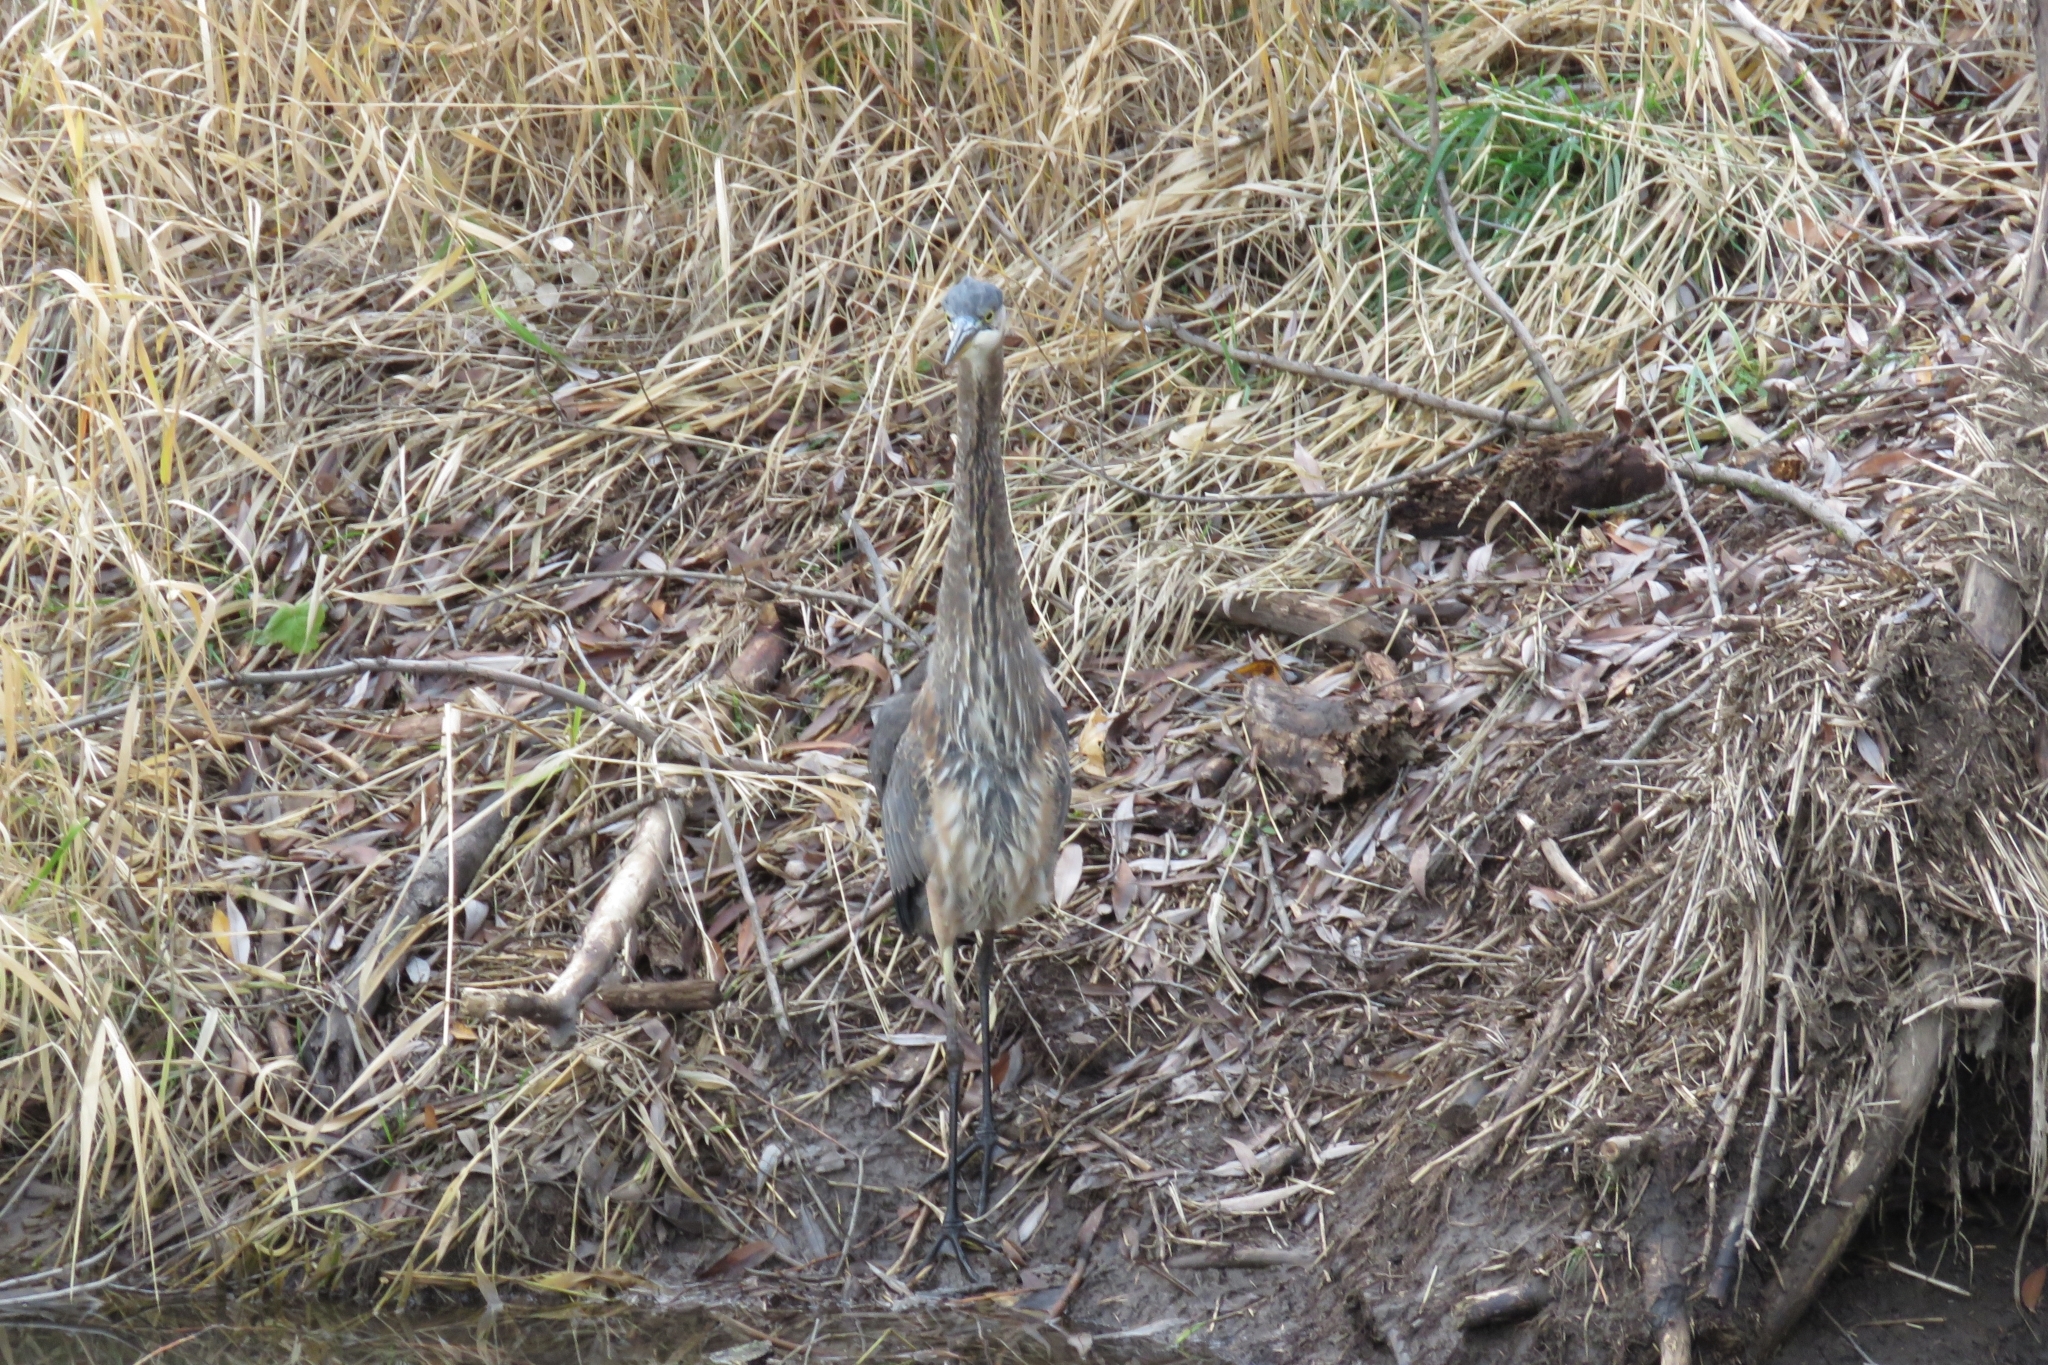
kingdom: Animalia
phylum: Chordata
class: Aves
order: Pelecaniformes
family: Ardeidae
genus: Ardea
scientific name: Ardea herodias
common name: Great blue heron
